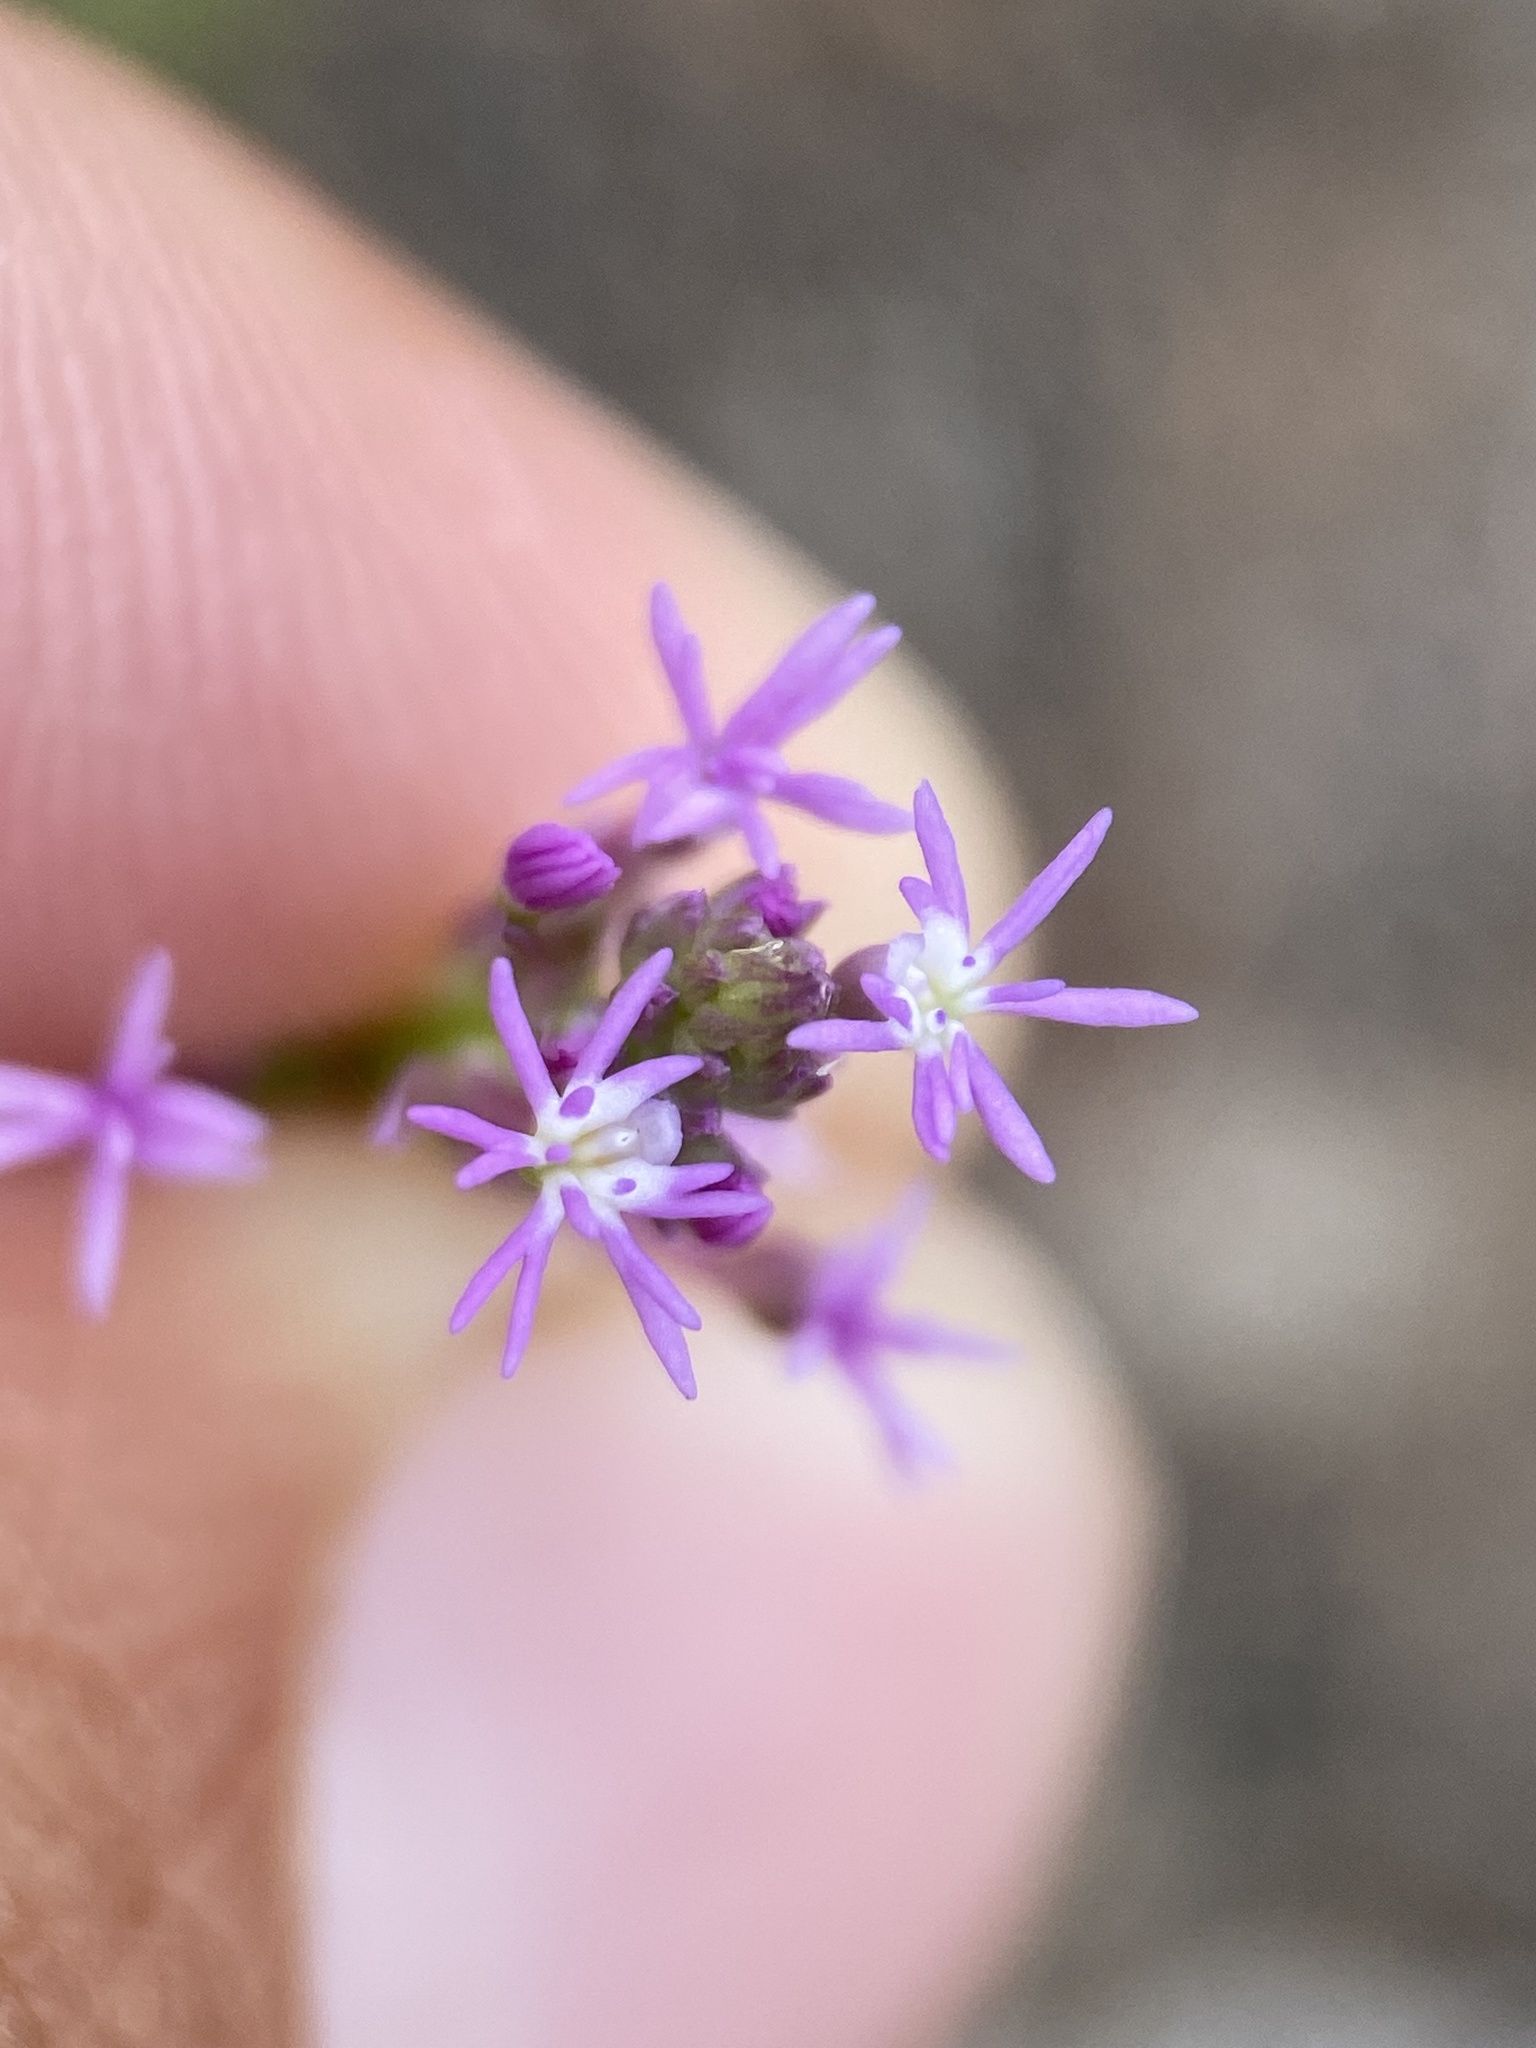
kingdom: Plantae
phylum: Tracheophyta
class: Magnoliopsida
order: Fabales
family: Polygalaceae
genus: Polygala
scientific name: Polygala incarnata
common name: Pink milkwort
